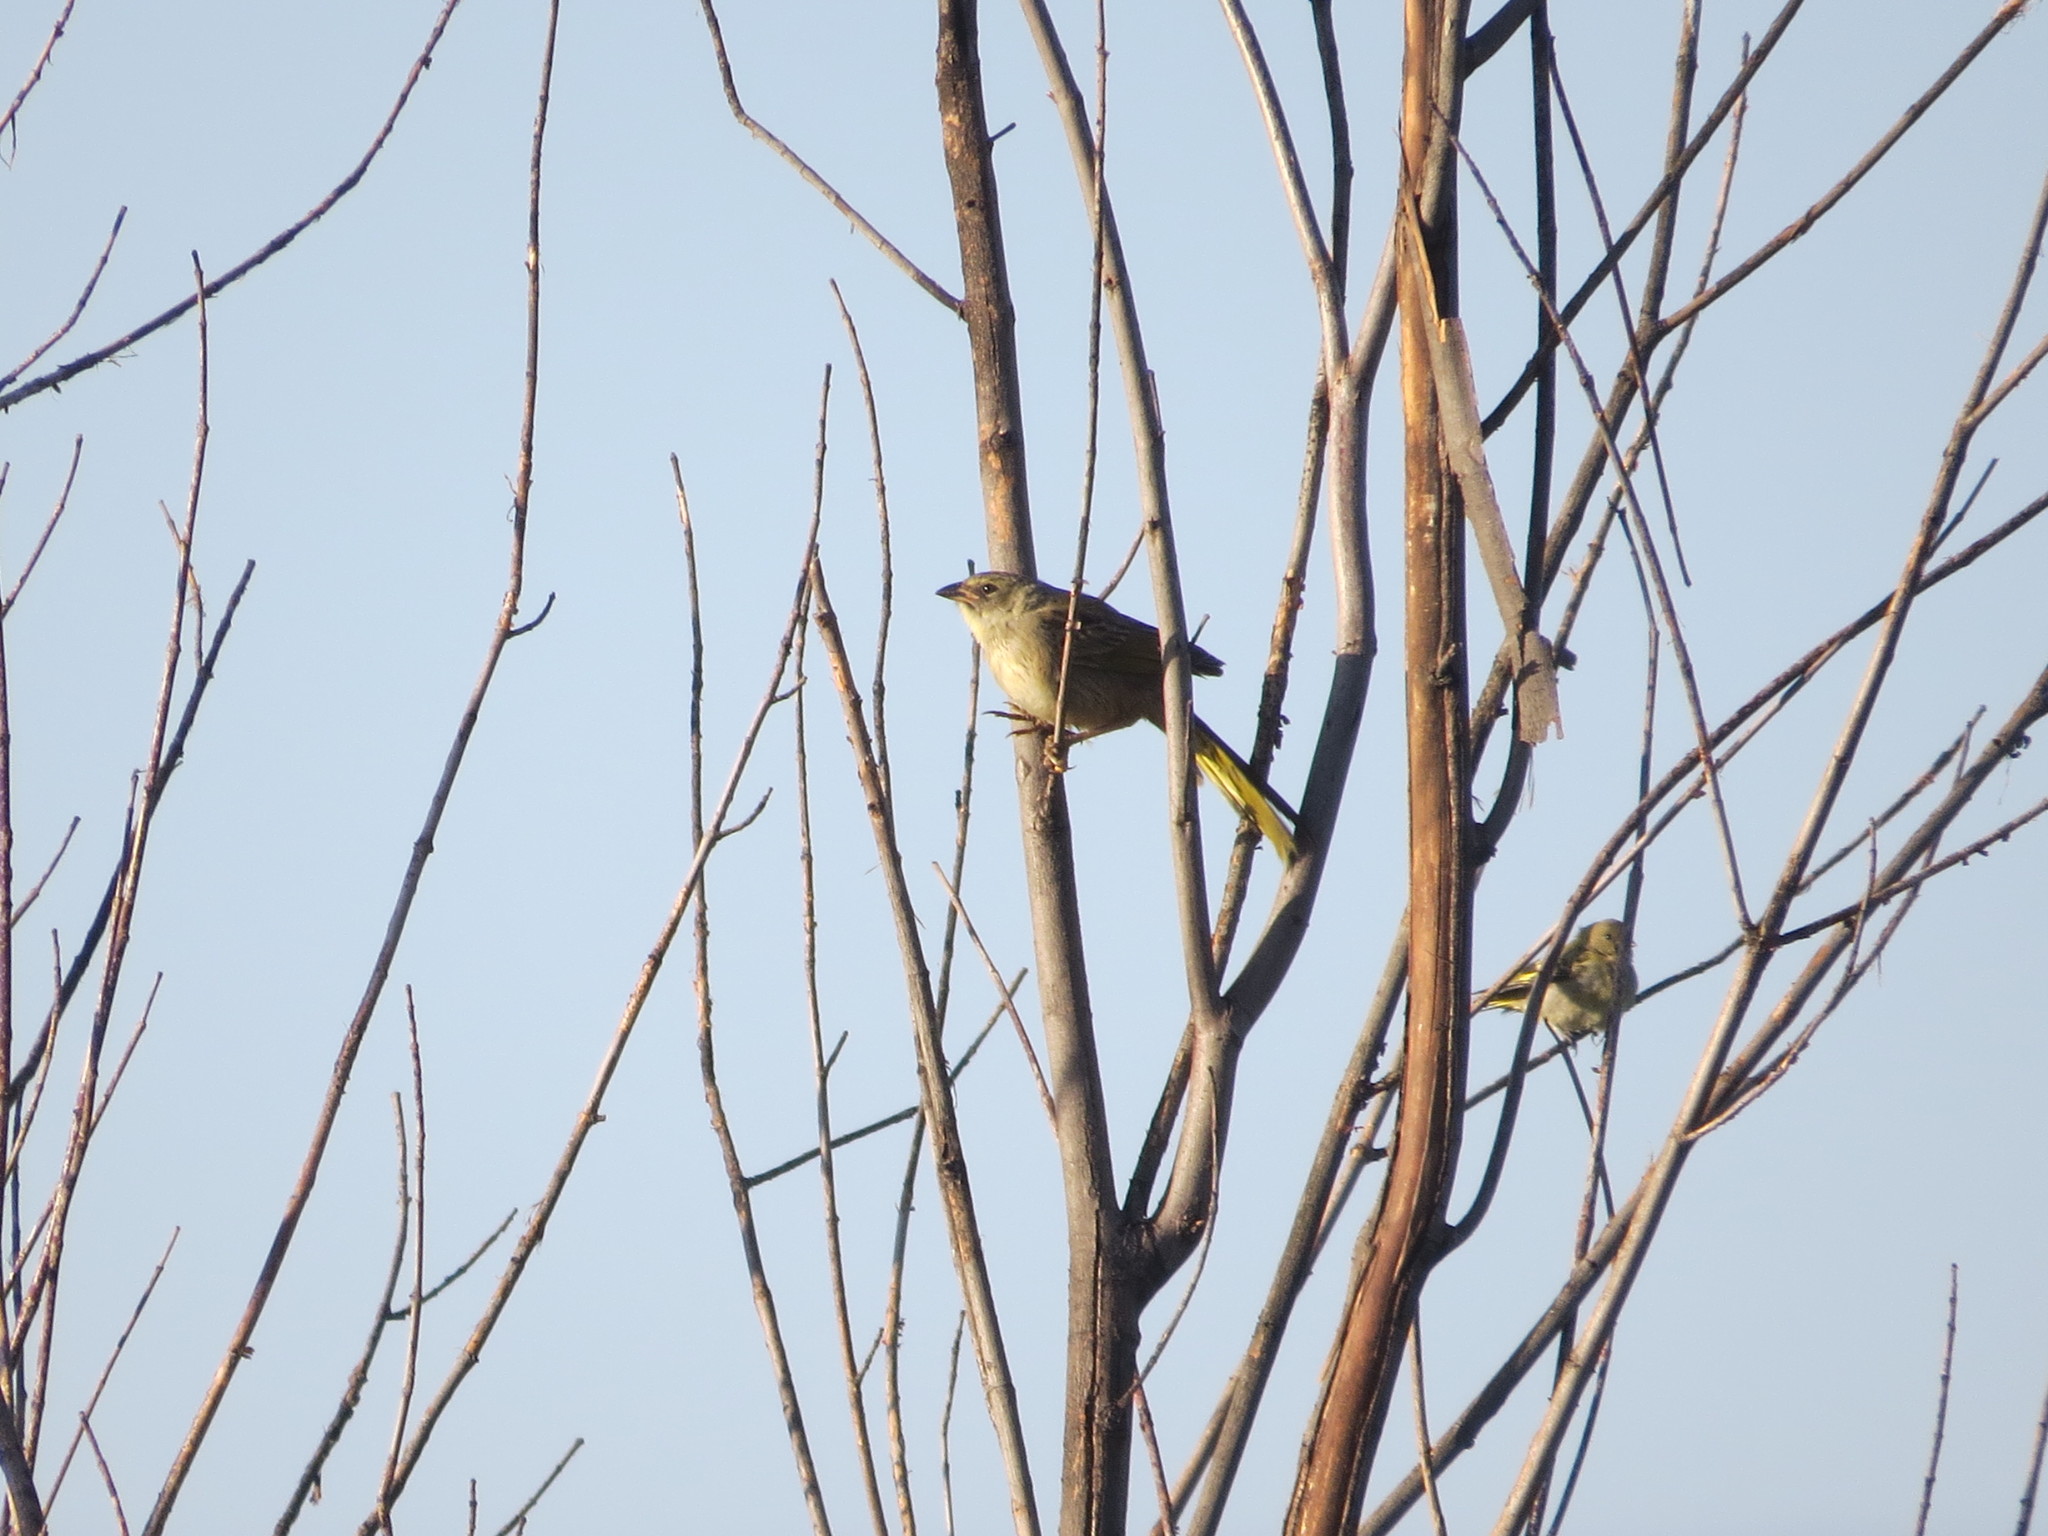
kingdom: Animalia
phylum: Chordata
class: Aves
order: Passeriformes
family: Thraupidae
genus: Embernagra
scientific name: Embernagra platensis
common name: Pampa finch
